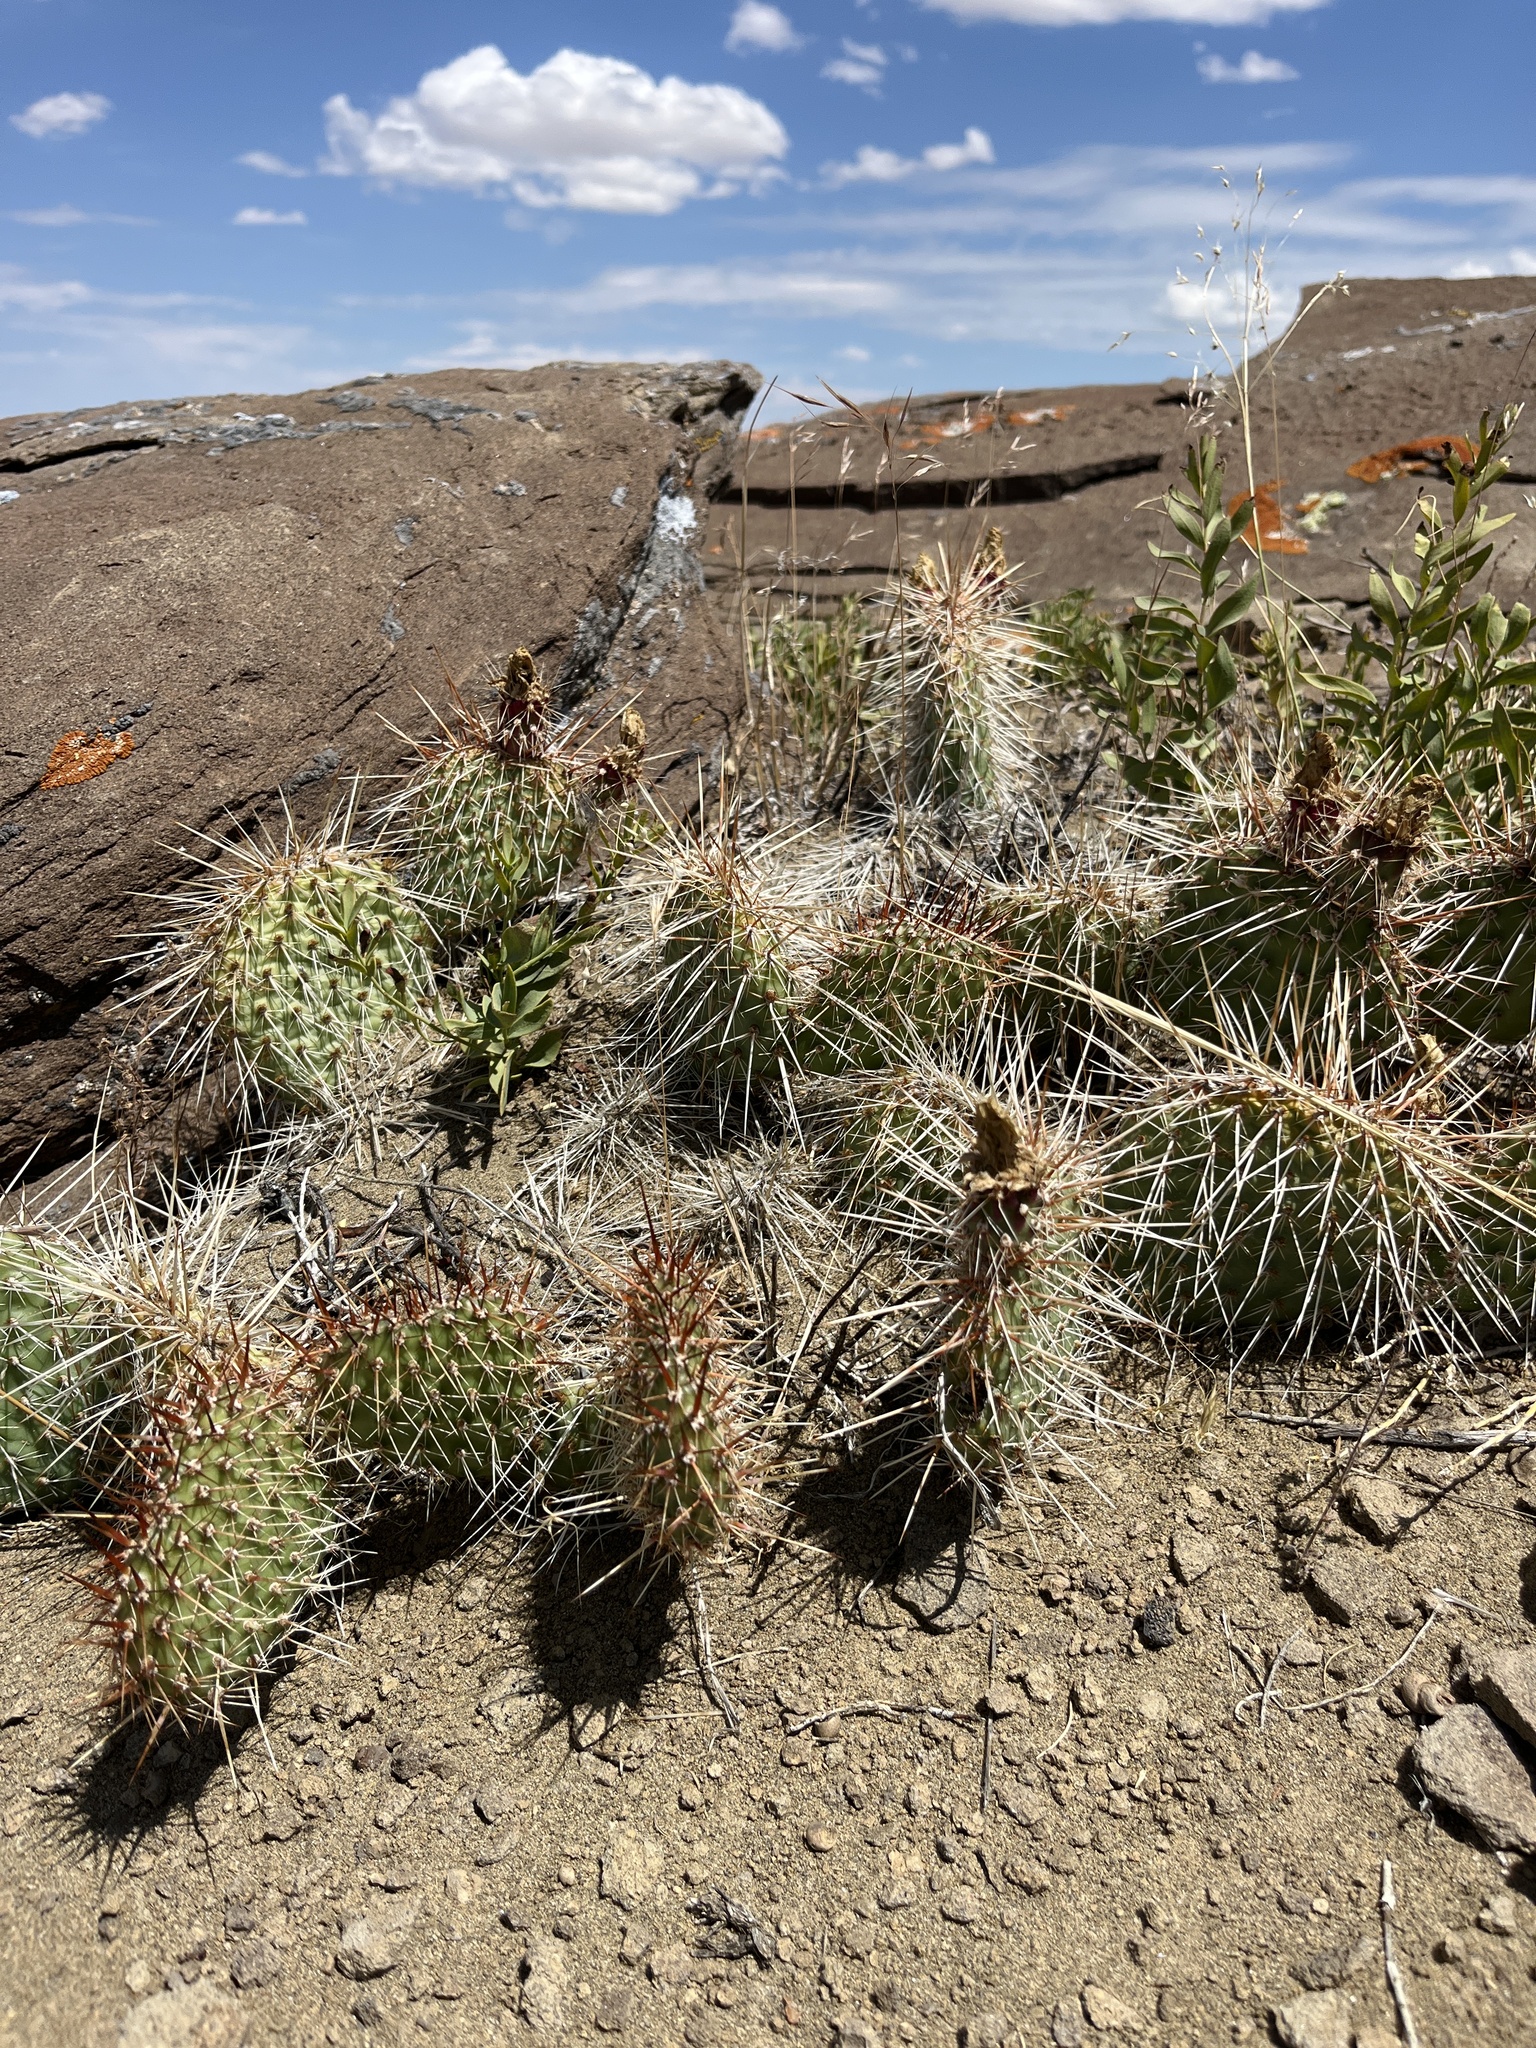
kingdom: Plantae
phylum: Tracheophyta
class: Magnoliopsida
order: Caryophyllales
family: Cactaceae
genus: Opuntia
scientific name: Opuntia polyacantha
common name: Plains prickly-pear
